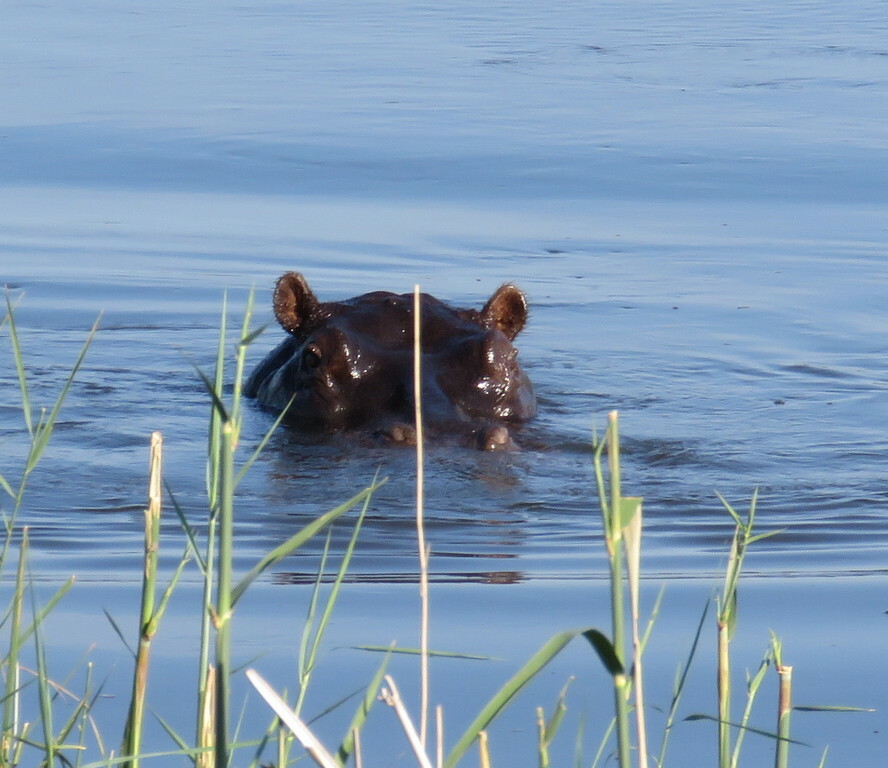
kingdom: Animalia
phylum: Chordata
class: Mammalia
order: Artiodactyla
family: Hippopotamidae
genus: Hippopotamus
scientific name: Hippopotamus amphibius
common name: Common hippopotamus
